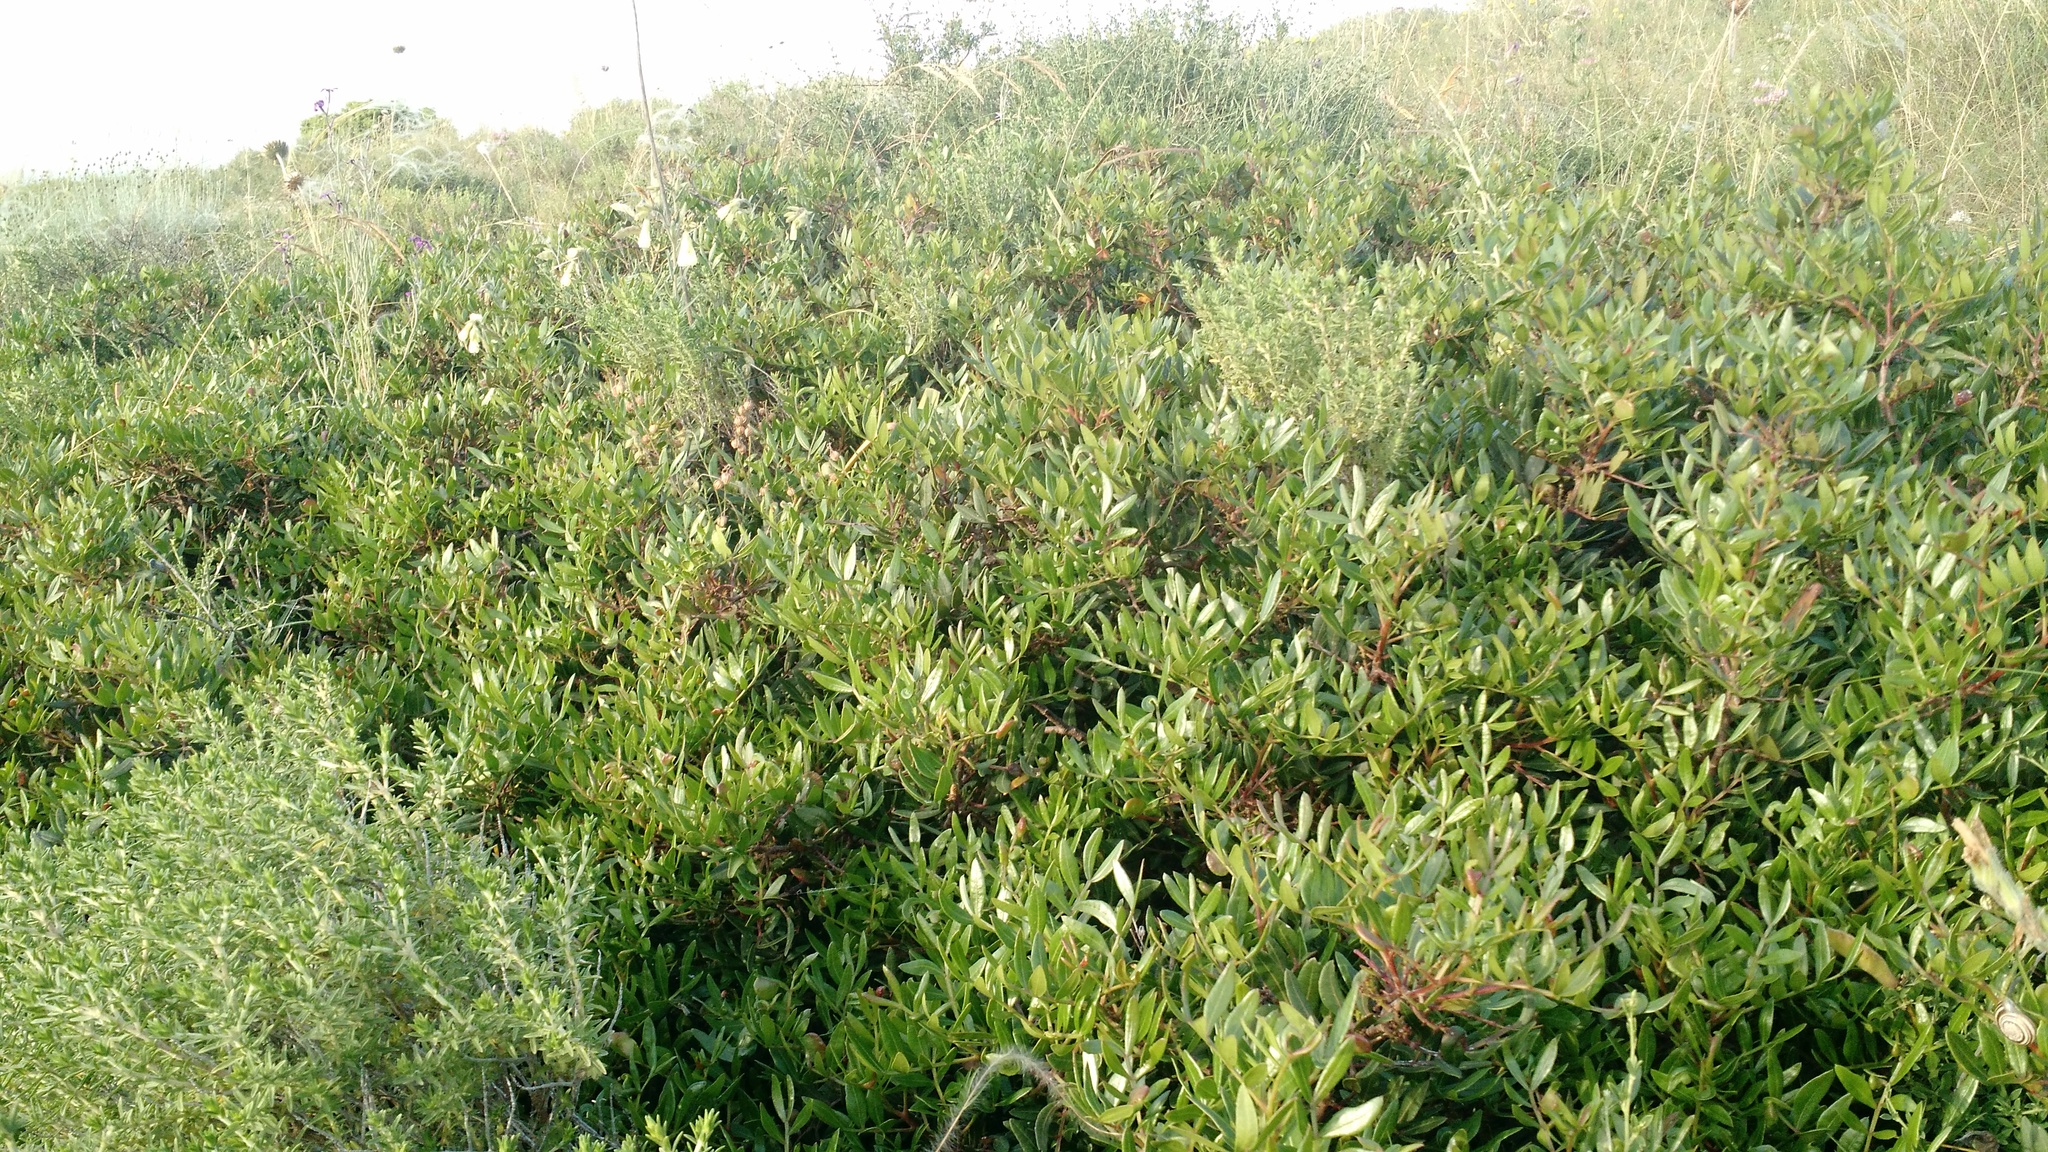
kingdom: Plantae
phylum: Tracheophyta
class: Magnoliopsida
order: Sapindales
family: Anacardiaceae
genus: Pistacia
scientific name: Pistacia lentiscus
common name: Lentisk
